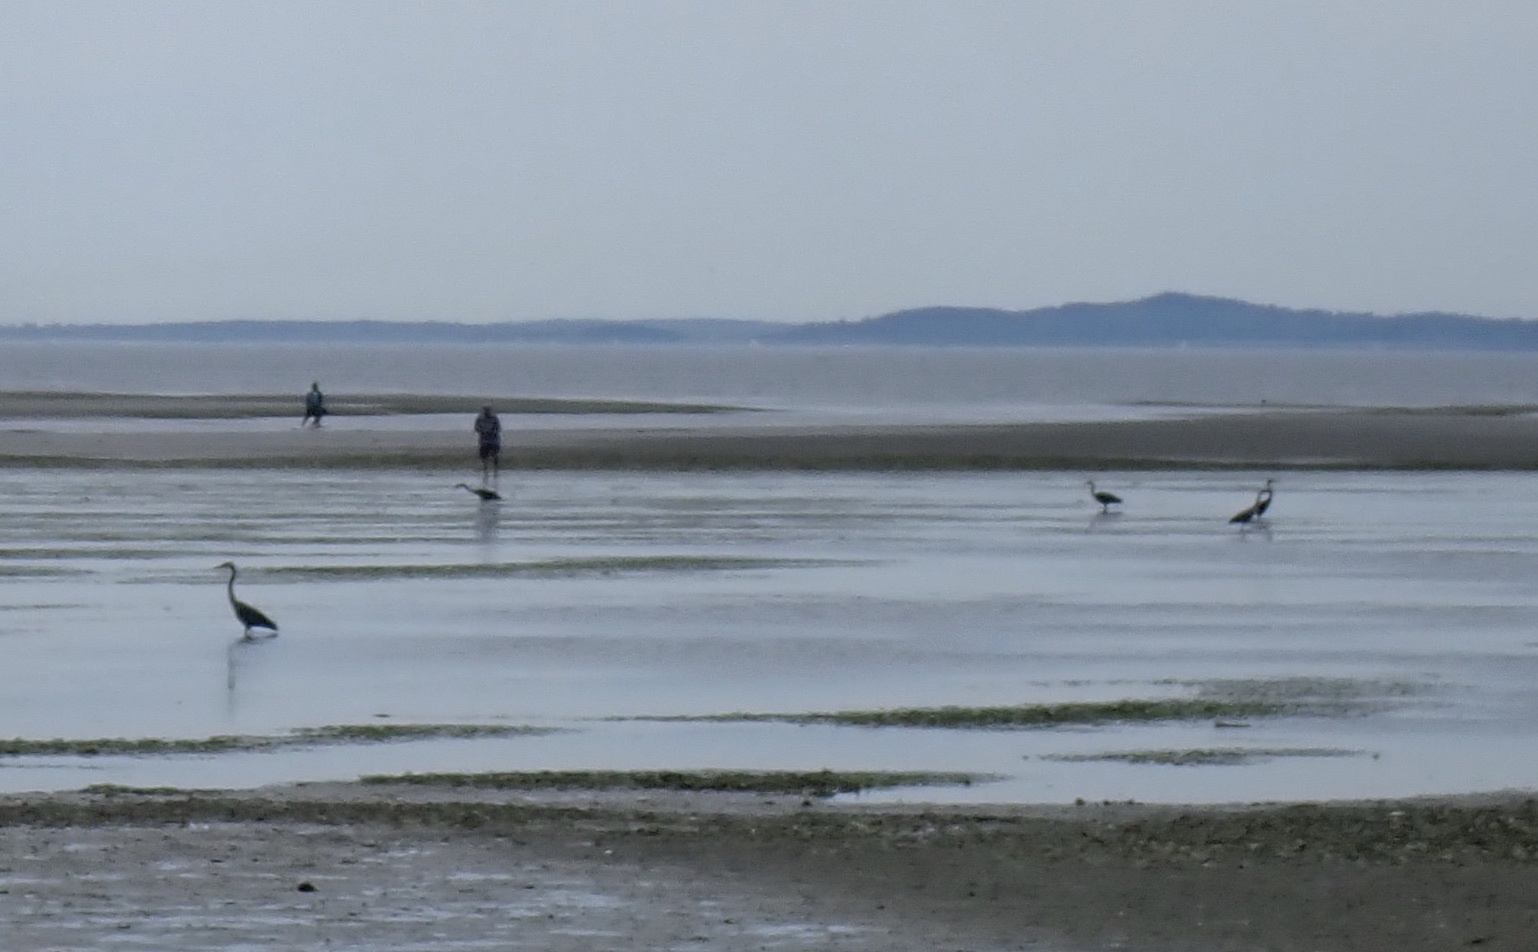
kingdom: Animalia
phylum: Chordata
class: Aves
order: Pelecaniformes
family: Ardeidae
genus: Ardea
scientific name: Ardea herodias
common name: Great blue heron
